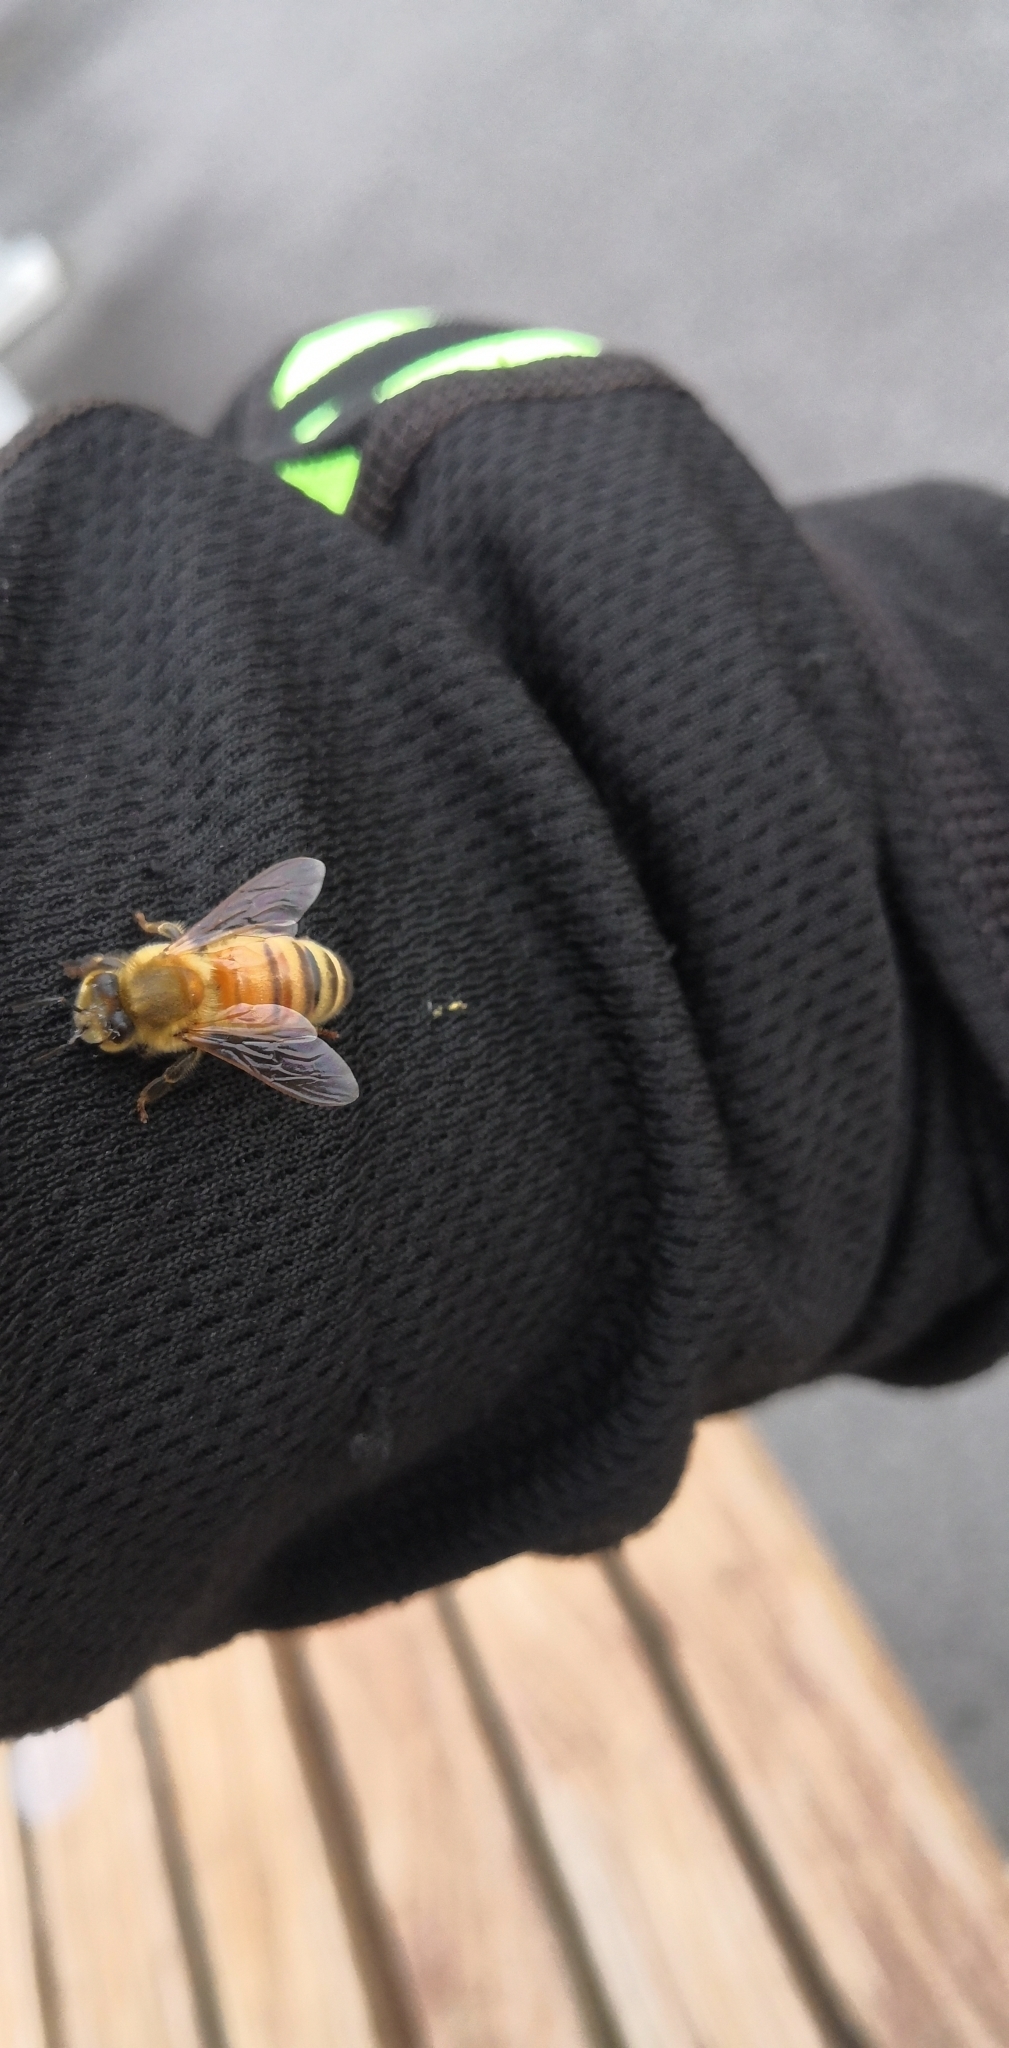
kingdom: Animalia
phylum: Arthropoda
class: Insecta
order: Hymenoptera
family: Apidae
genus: Apis
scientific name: Apis mellifera
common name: Honey bee
